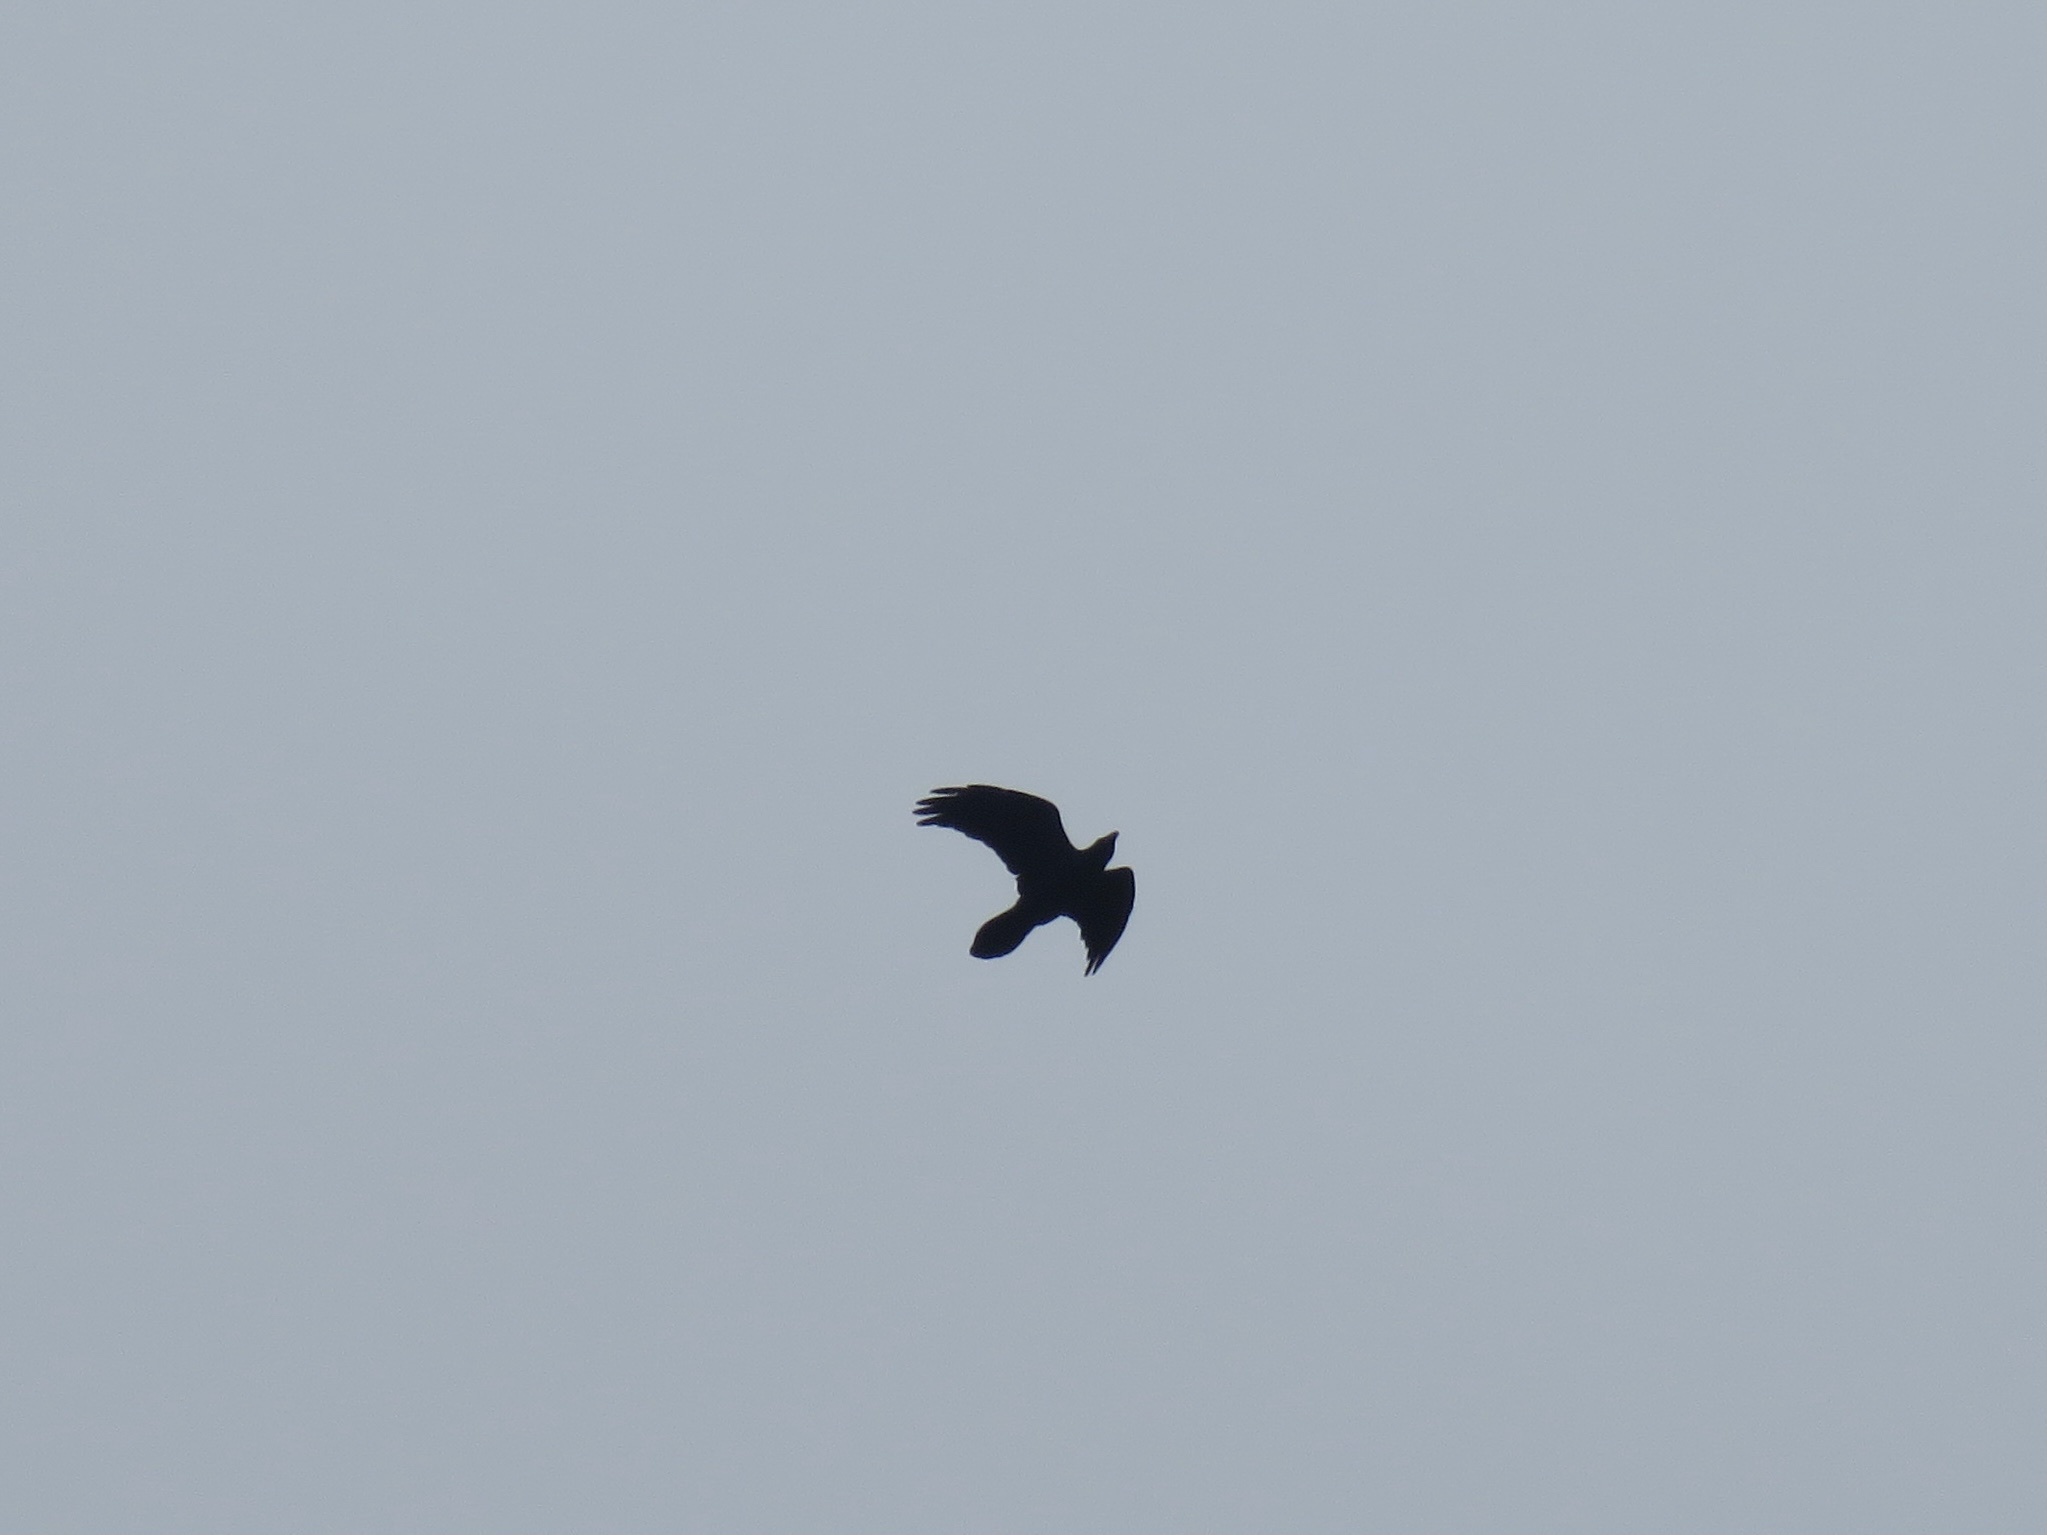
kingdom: Animalia
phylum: Chordata
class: Aves
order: Passeriformes
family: Corvidae
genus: Corvus
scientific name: Corvus corax
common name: Common raven
